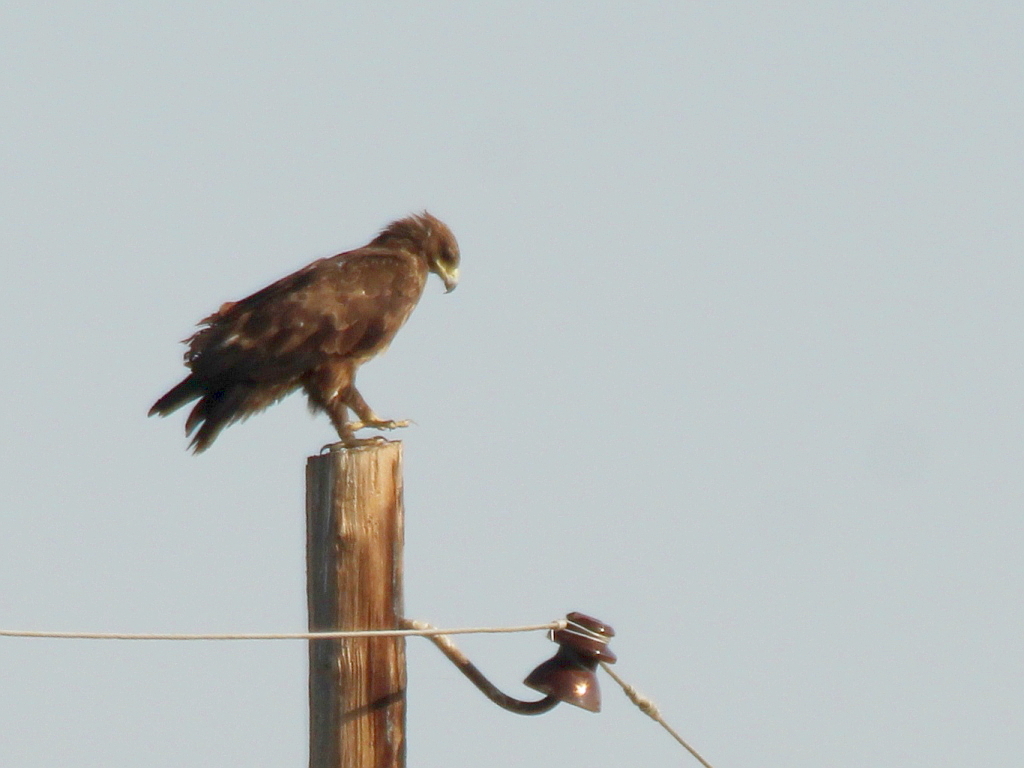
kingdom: Animalia
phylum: Chordata
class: Aves
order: Accipitriformes
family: Accipitridae
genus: Aquila
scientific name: Aquila clanga
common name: Greater spotted eagle
